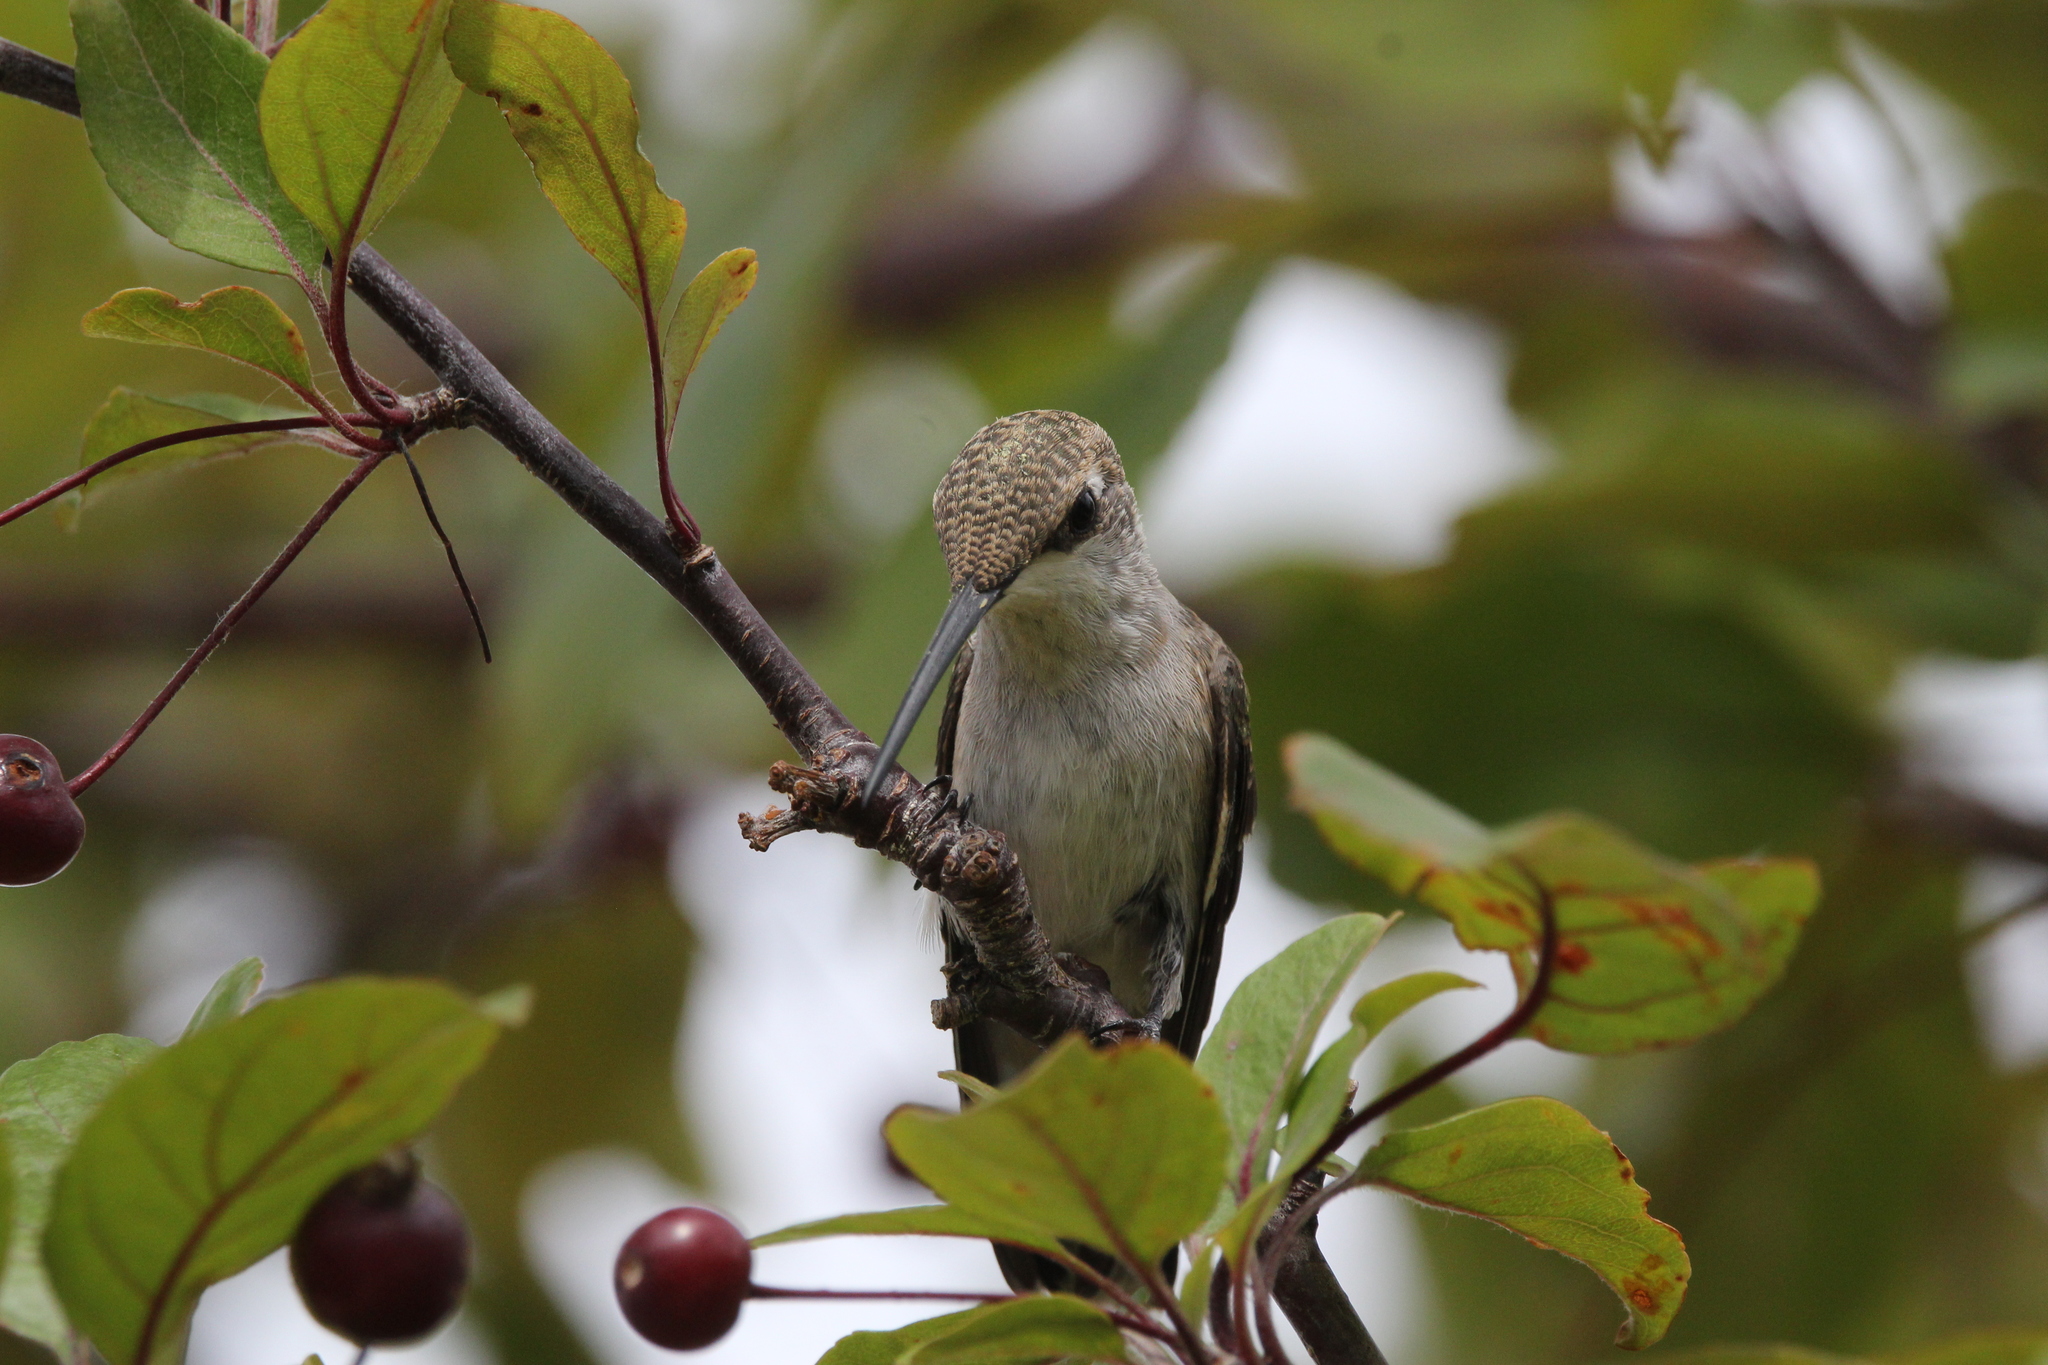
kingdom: Animalia
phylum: Chordata
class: Aves
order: Apodiformes
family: Trochilidae
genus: Archilochus
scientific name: Archilochus alexandri
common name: Black-chinned hummingbird
